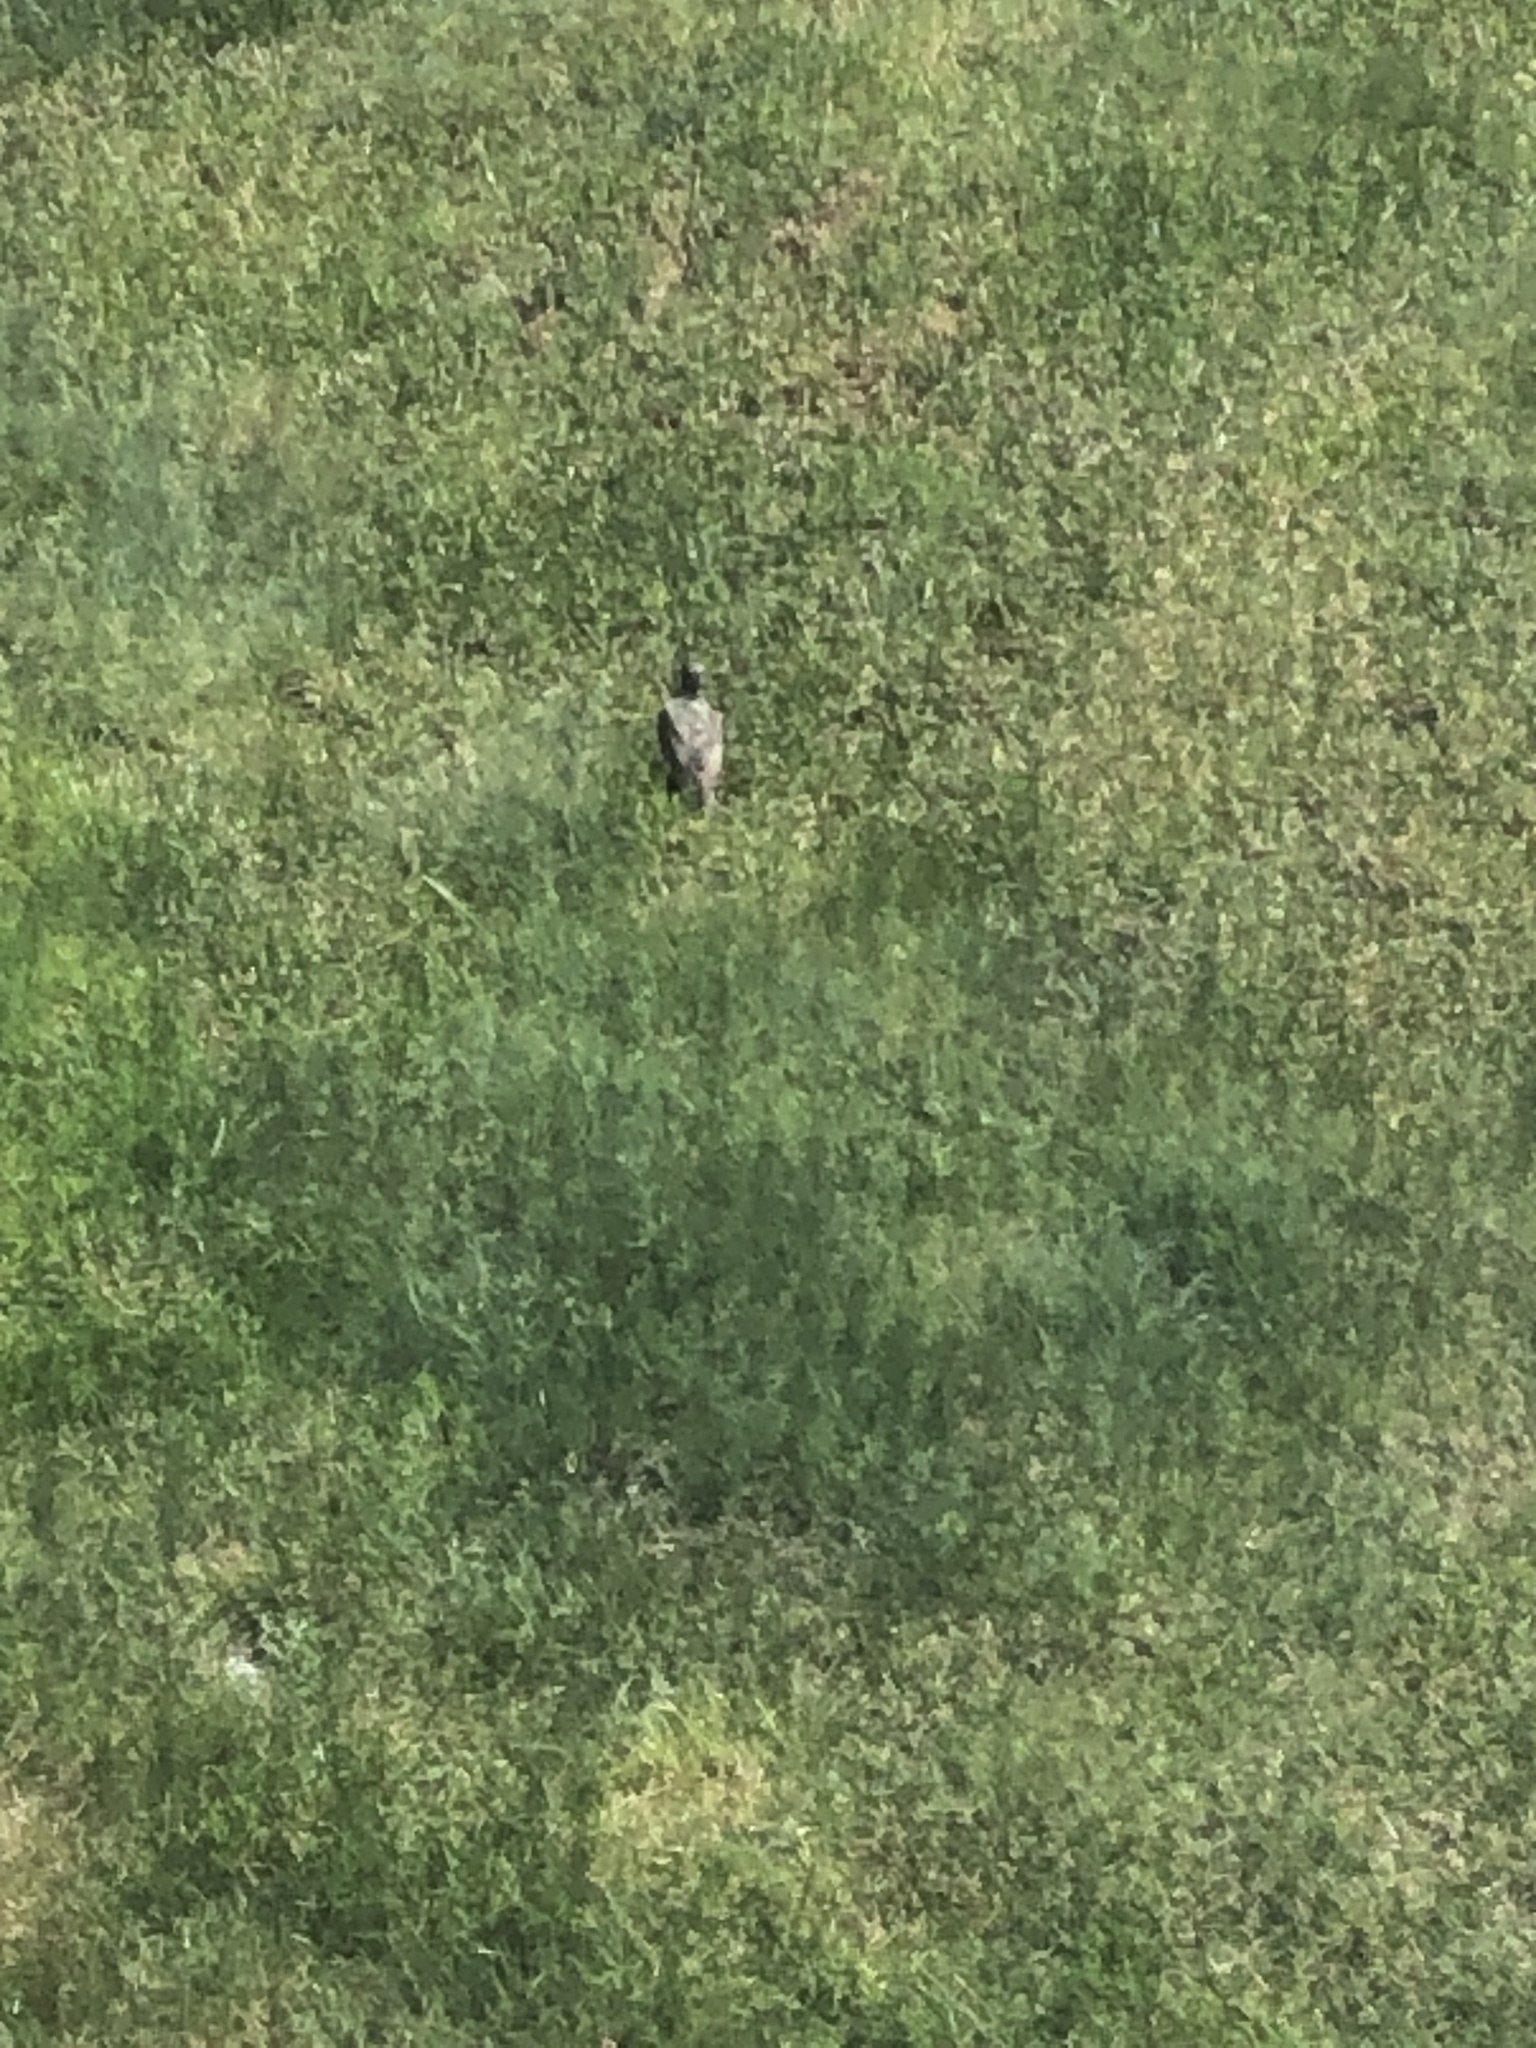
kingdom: Animalia
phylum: Chordata
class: Aves
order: Passeriformes
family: Turdidae
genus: Turdus
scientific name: Turdus migratorius
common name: American robin
